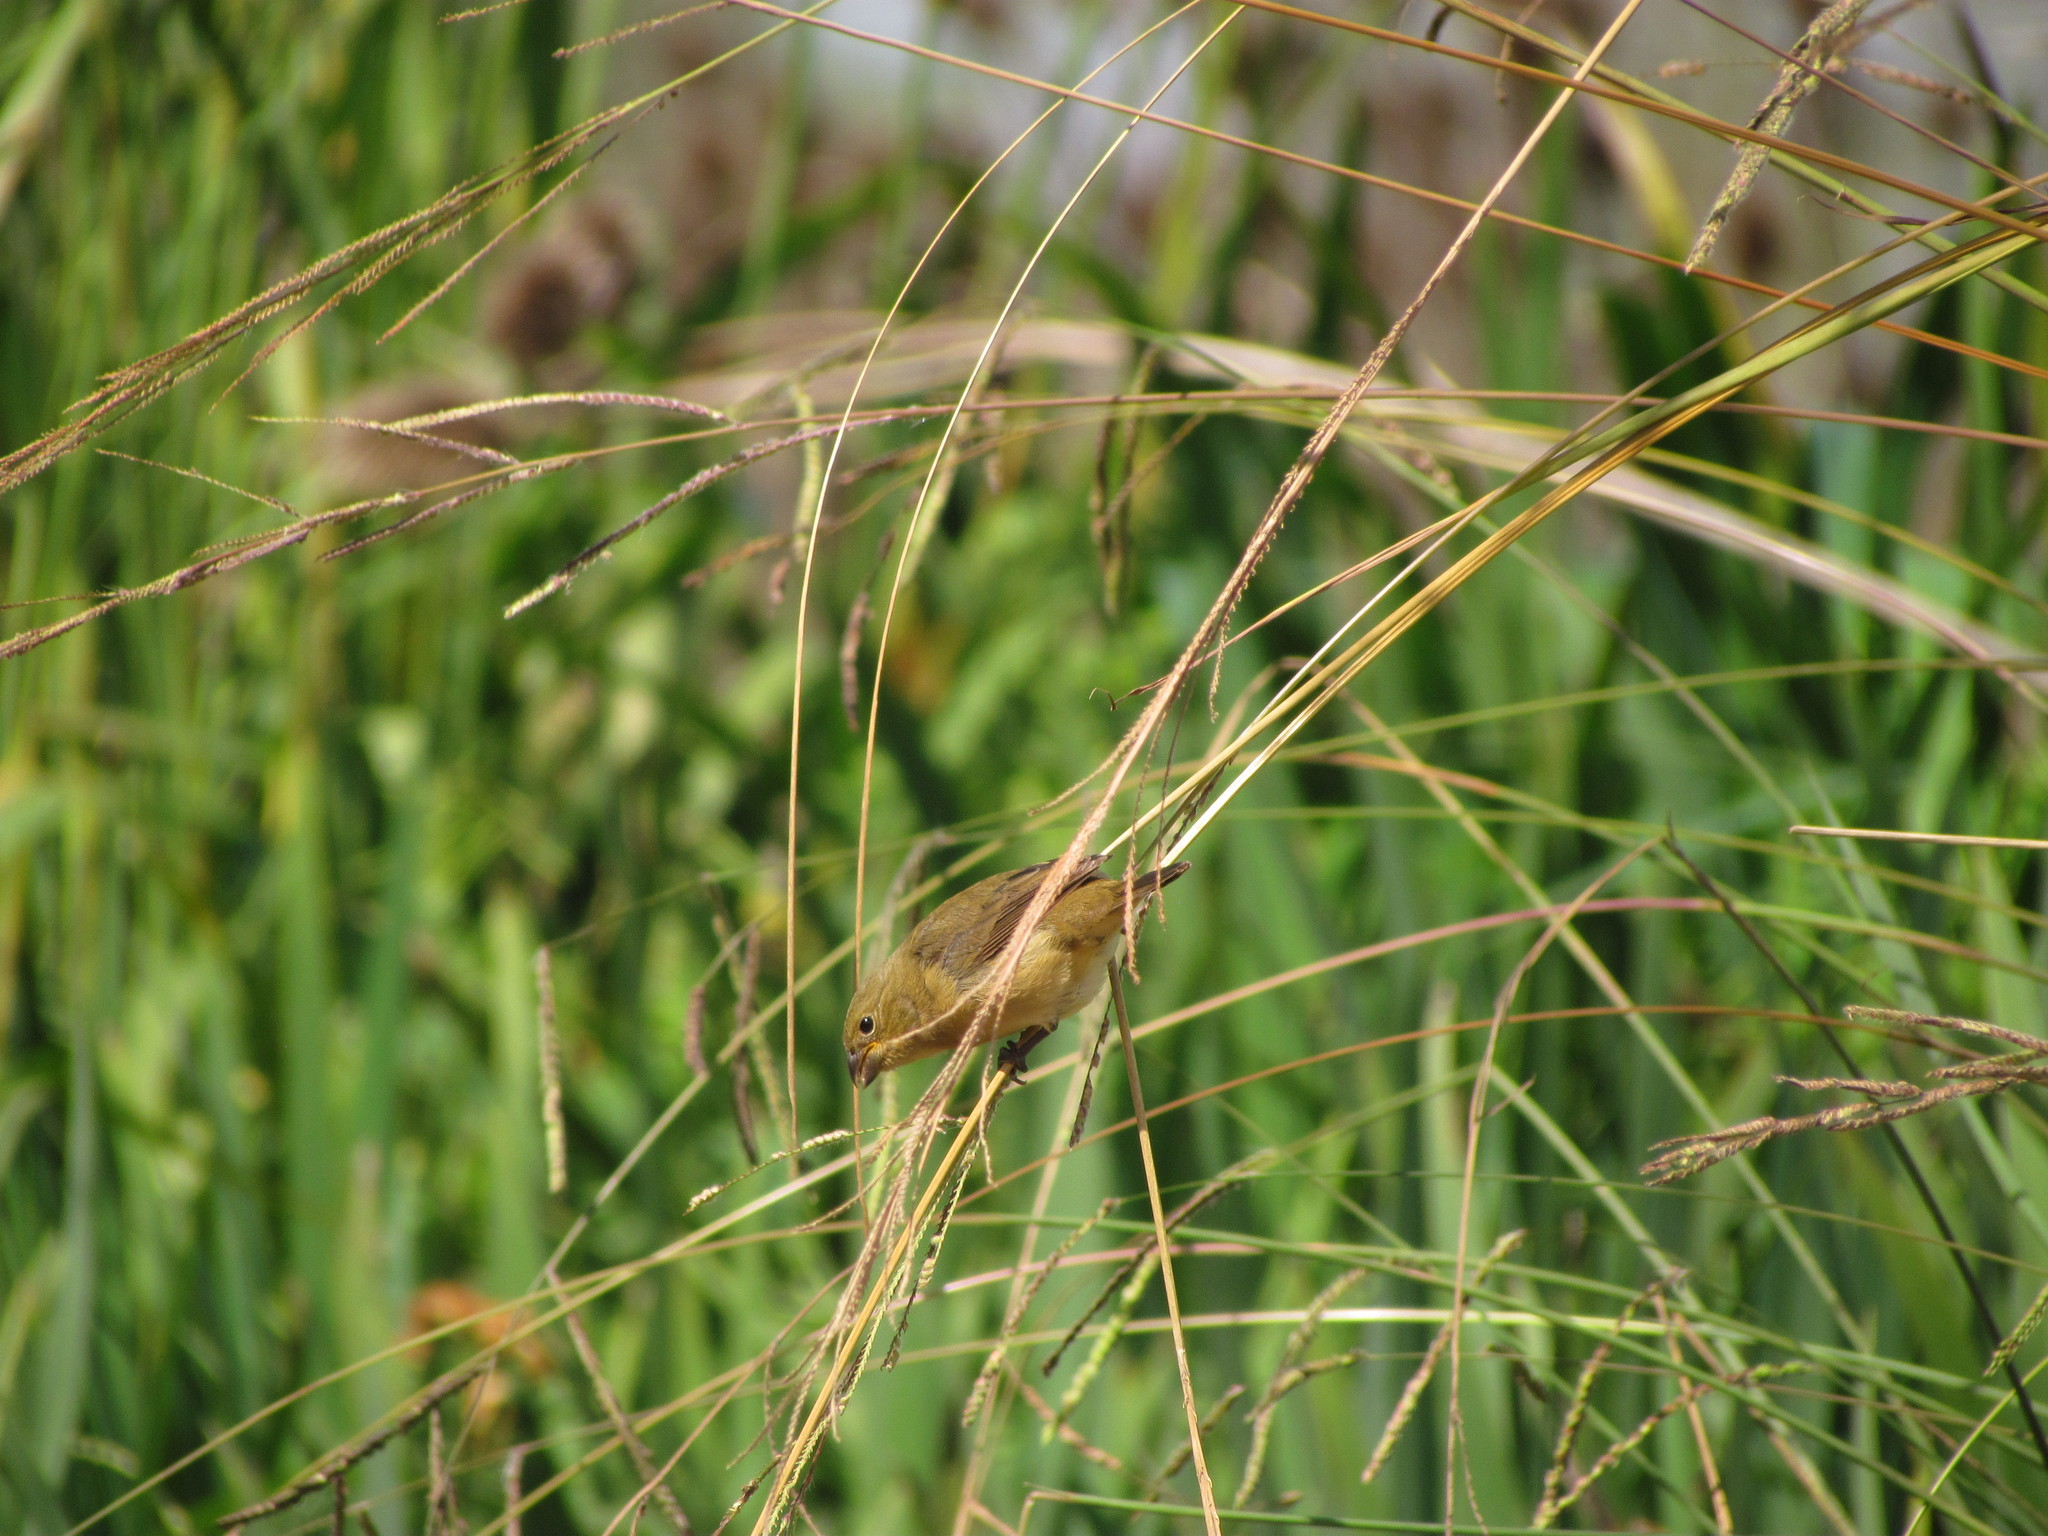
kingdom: Animalia
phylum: Chordata
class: Aves
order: Passeriformes
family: Thraupidae
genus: Sporophila
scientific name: Sporophila caerulescens
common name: Double-collared seedeater
